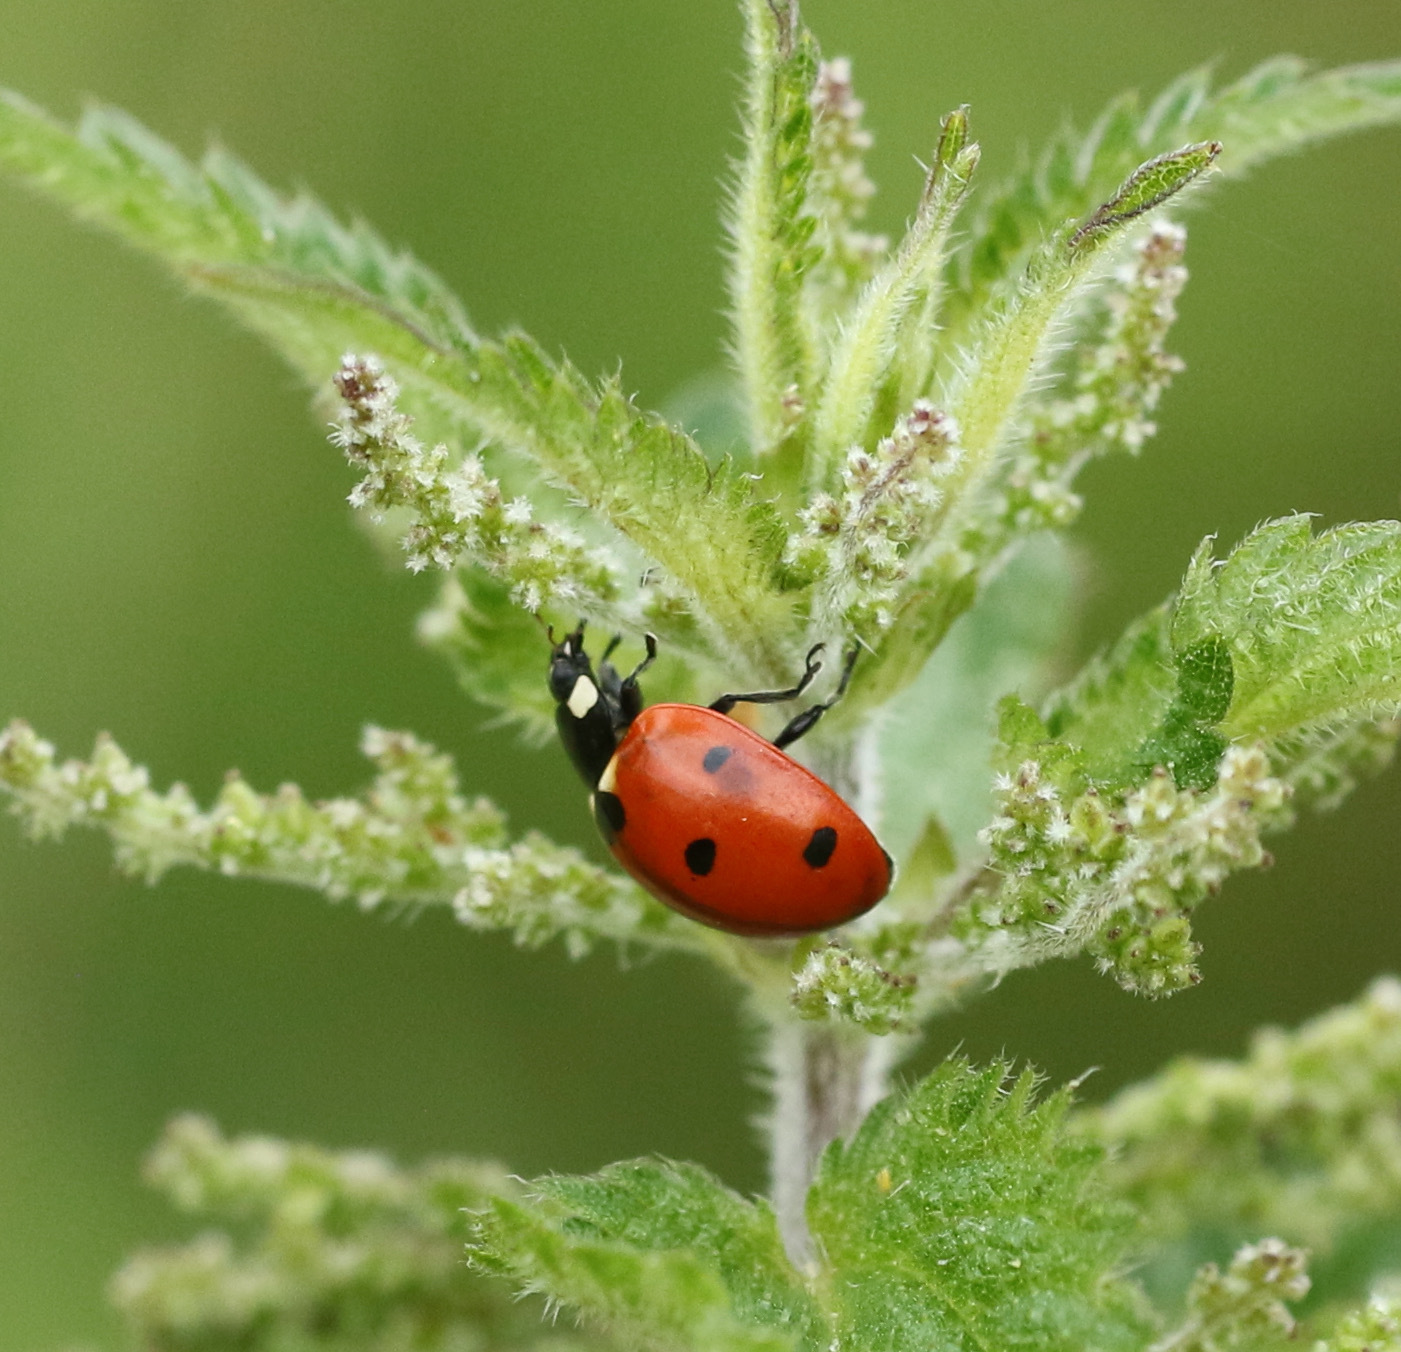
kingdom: Animalia
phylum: Arthropoda
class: Insecta
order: Coleoptera
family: Coccinellidae
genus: Coccinella
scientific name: Coccinella septempunctata
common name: Sevenspotted lady beetle
